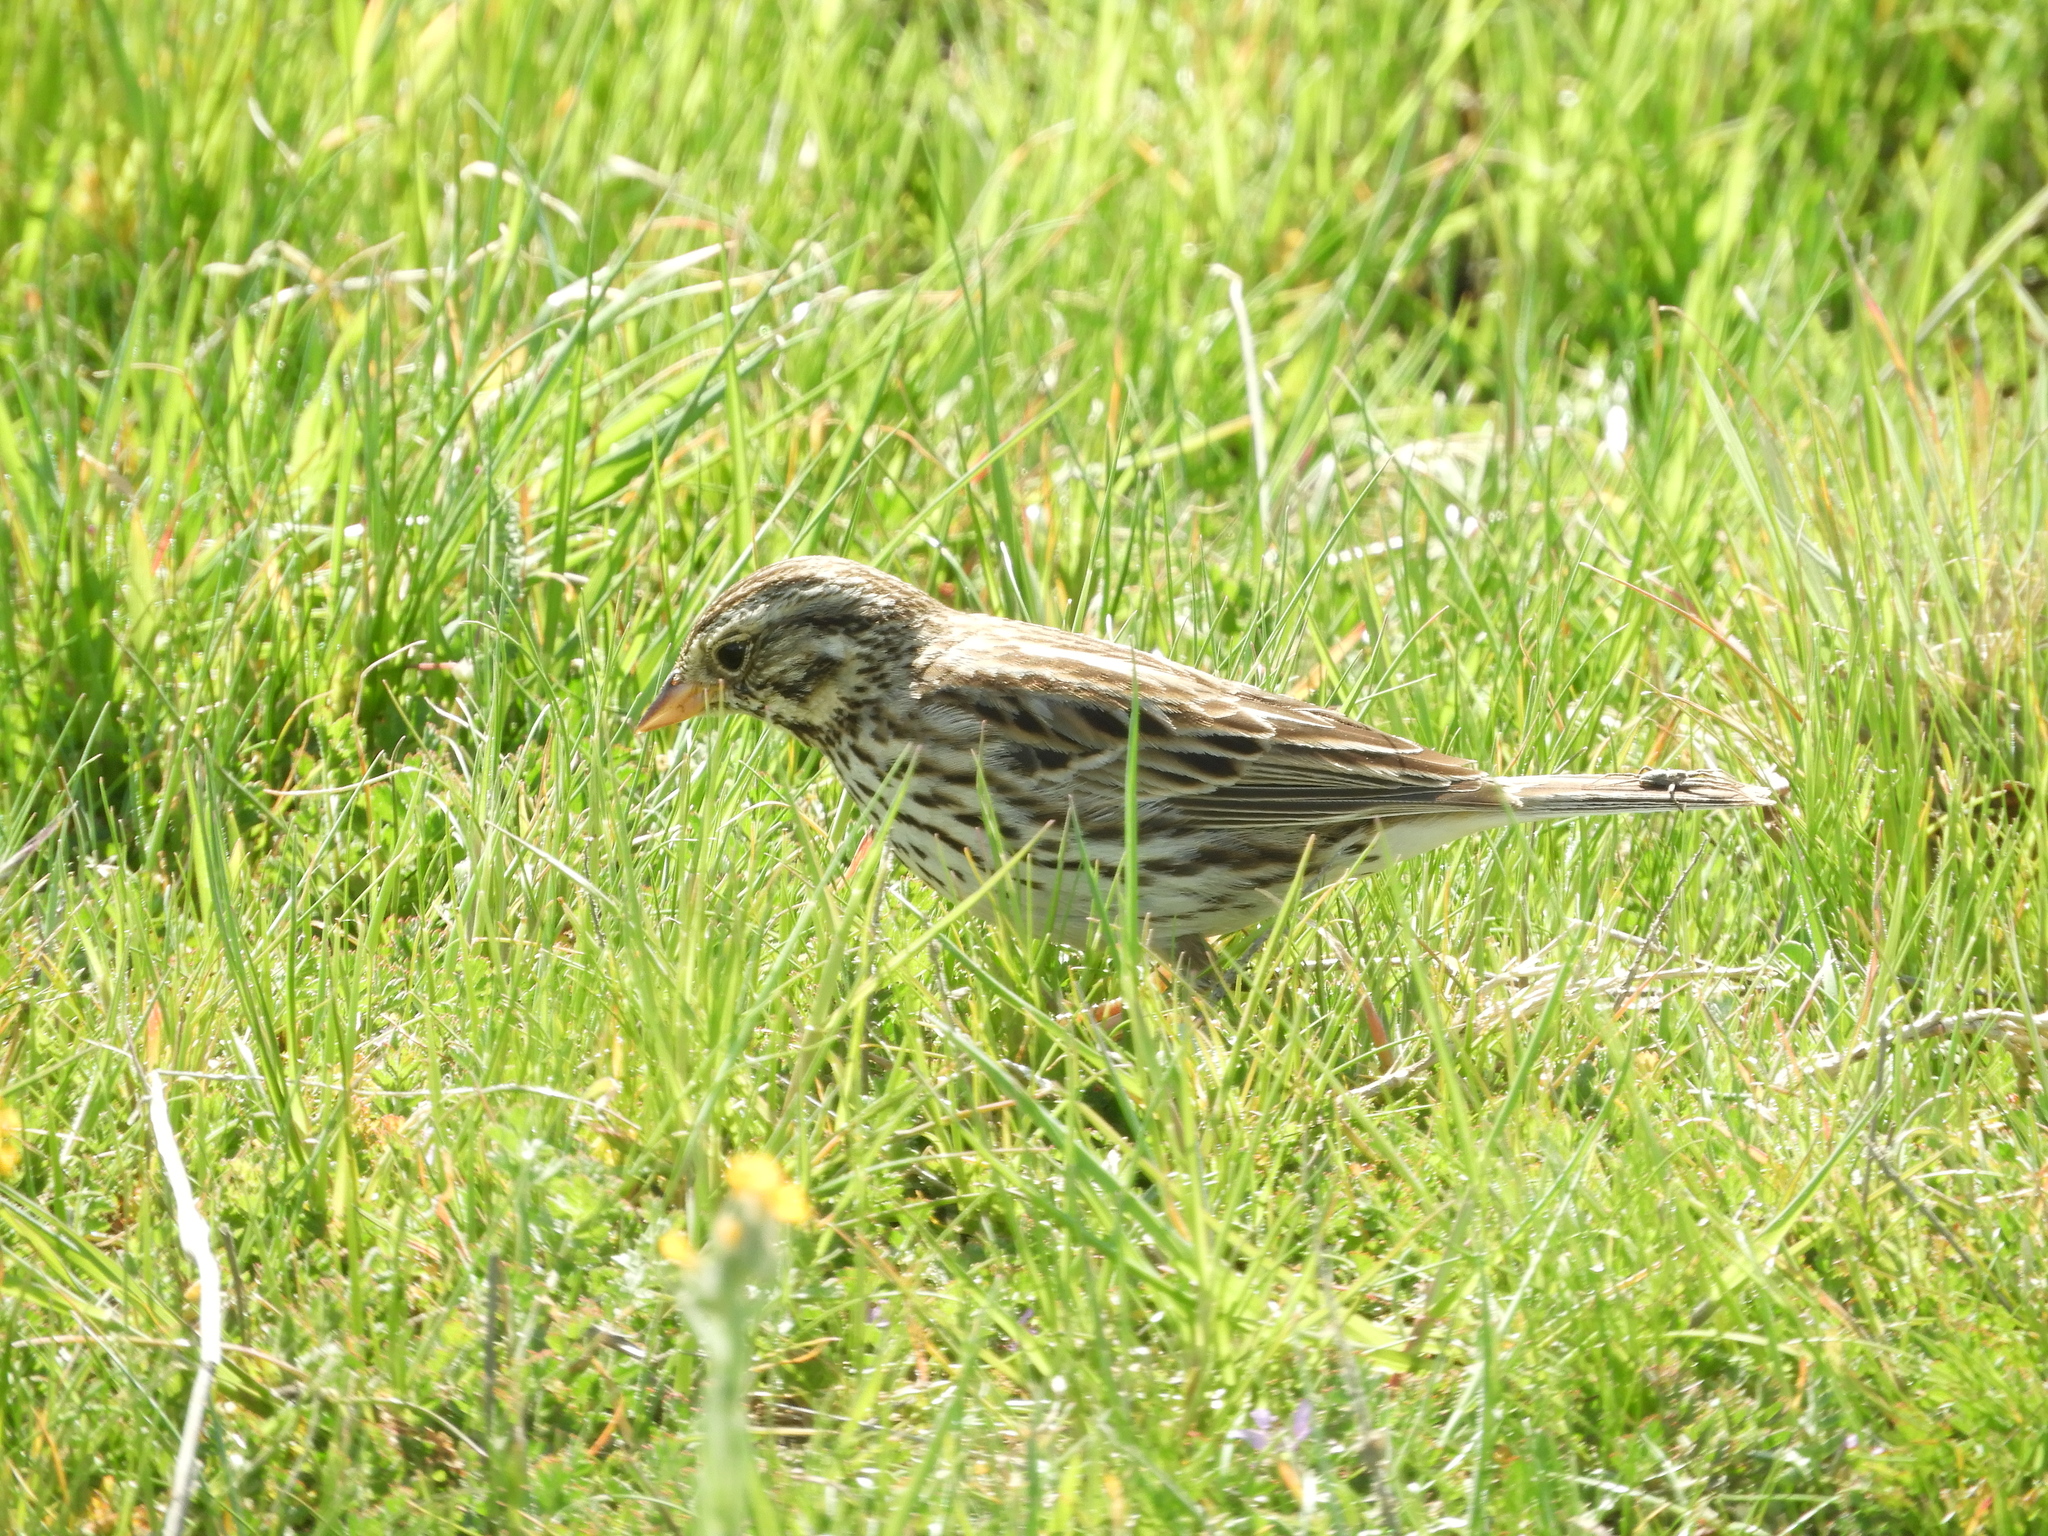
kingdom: Animalia
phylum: Chordata
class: Aves
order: Passeriformes
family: Passerellidae
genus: Passerculus
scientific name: Passerculus sandwichensis
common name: Savannah sparrow
